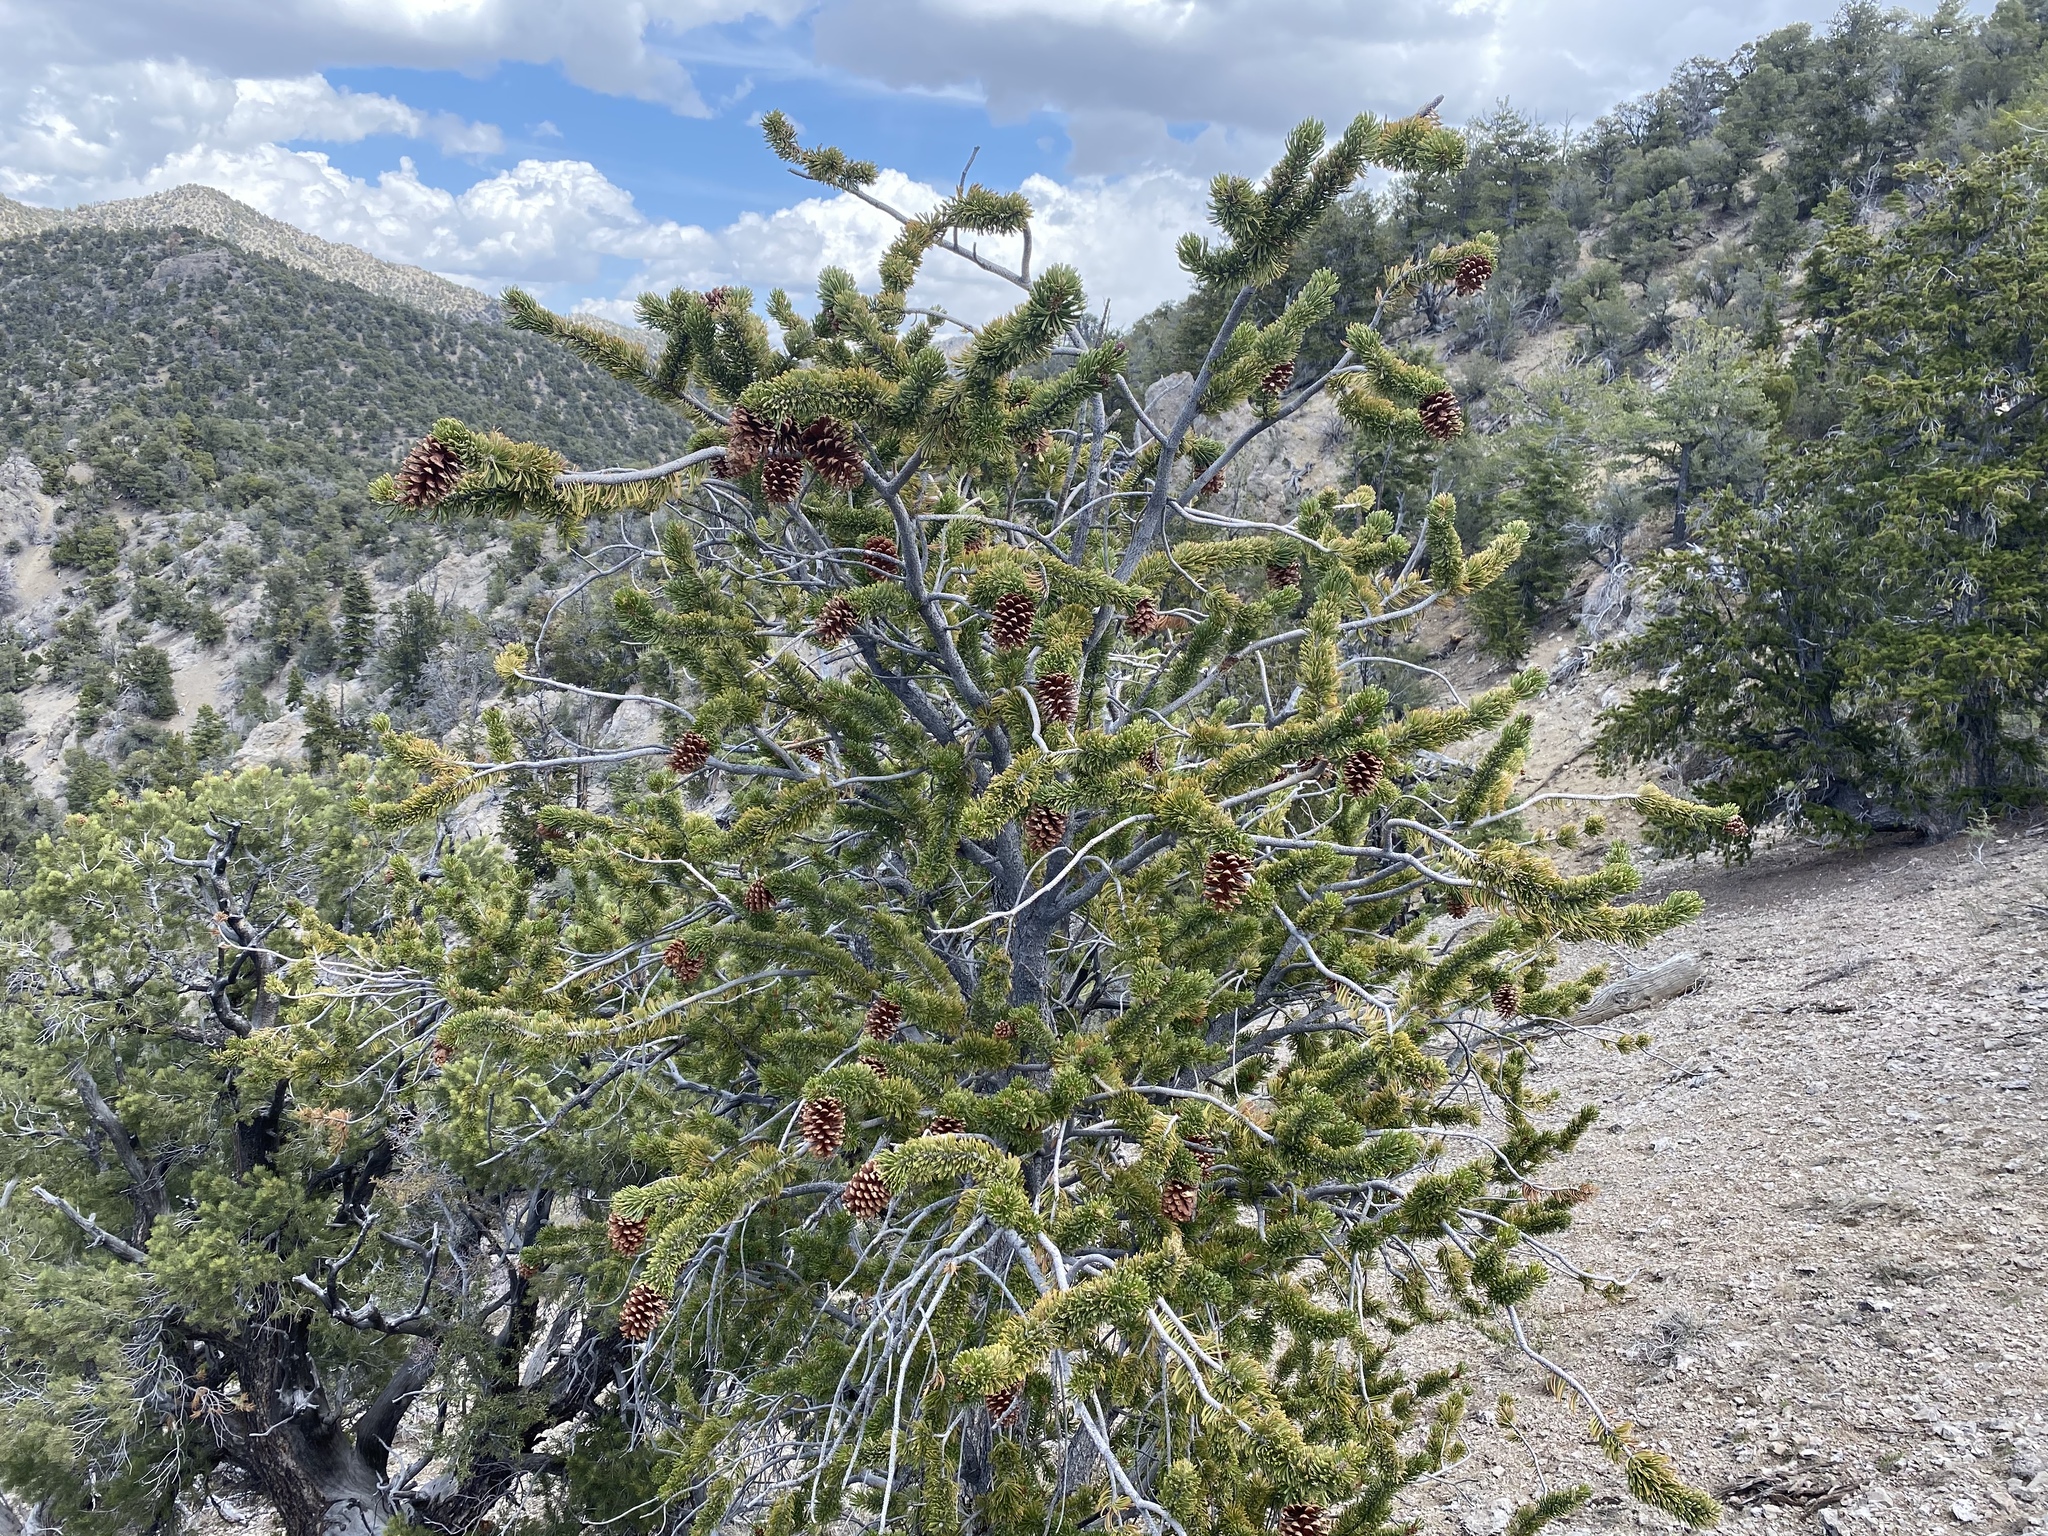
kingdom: Plantae
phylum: Tracheophyta
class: Pinopsida
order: Pinales
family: Pinaceae
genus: Pinus
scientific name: Pinus longaeva
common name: Intermountain bristlecone pine
